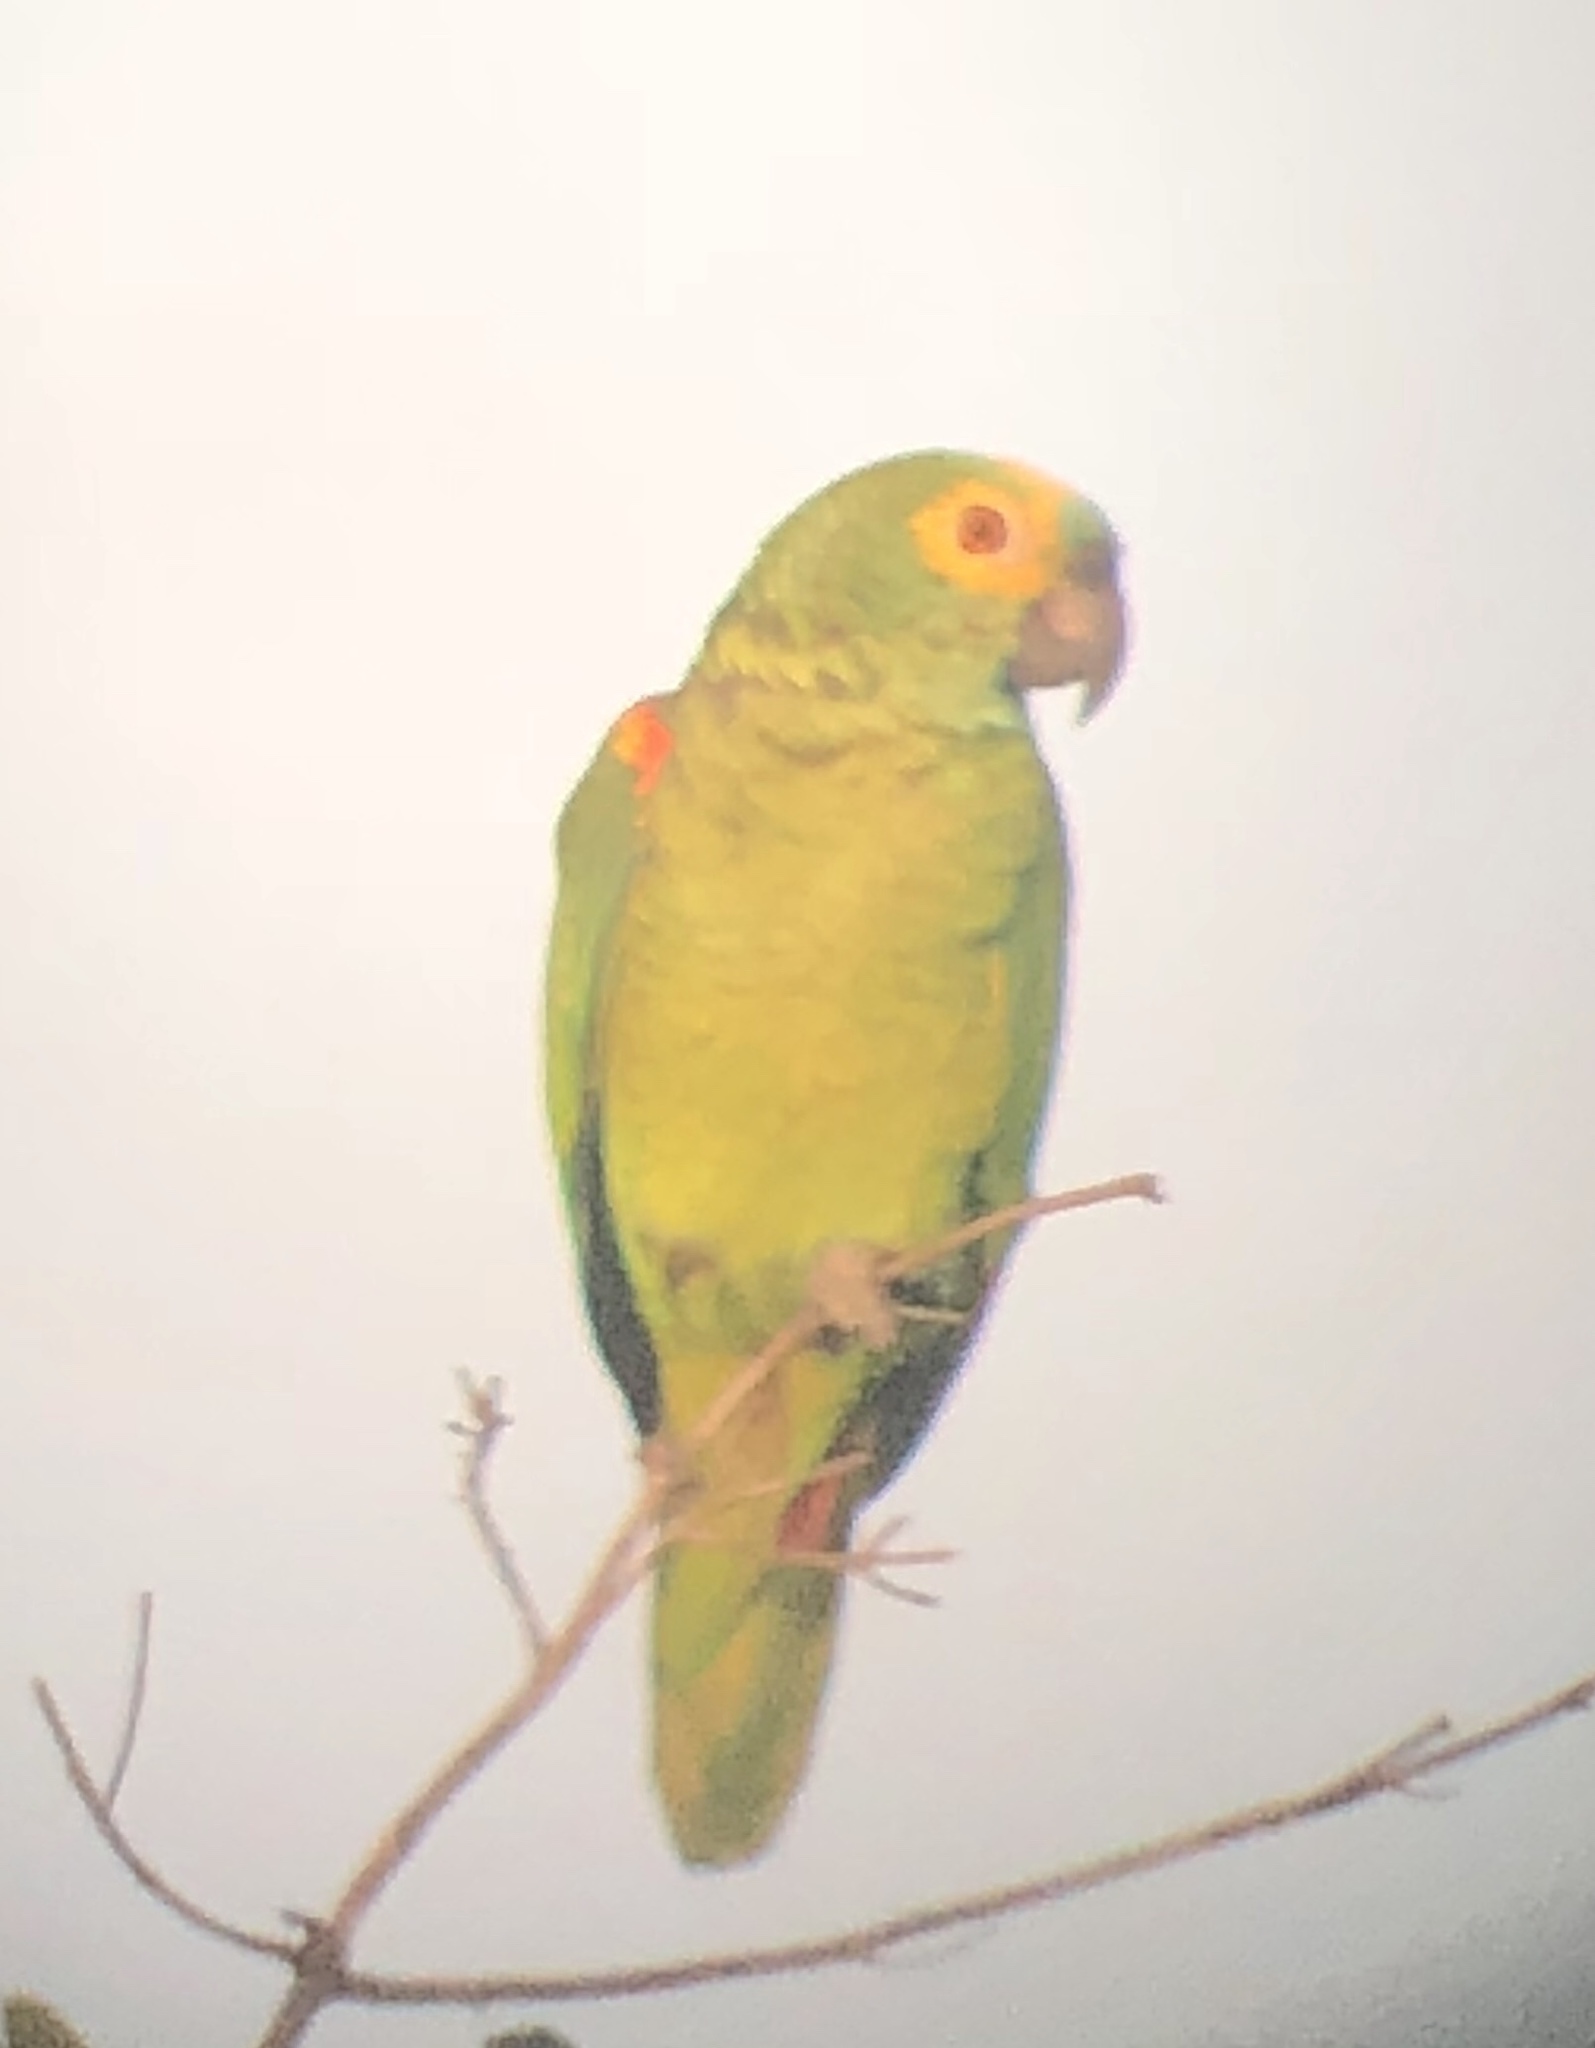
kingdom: Animalia
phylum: Chordata
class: Aves
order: Psittaciformes
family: Psittacidae
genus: Amazona
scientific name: Amazona aestiva
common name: Turquoise-fronted amazon
